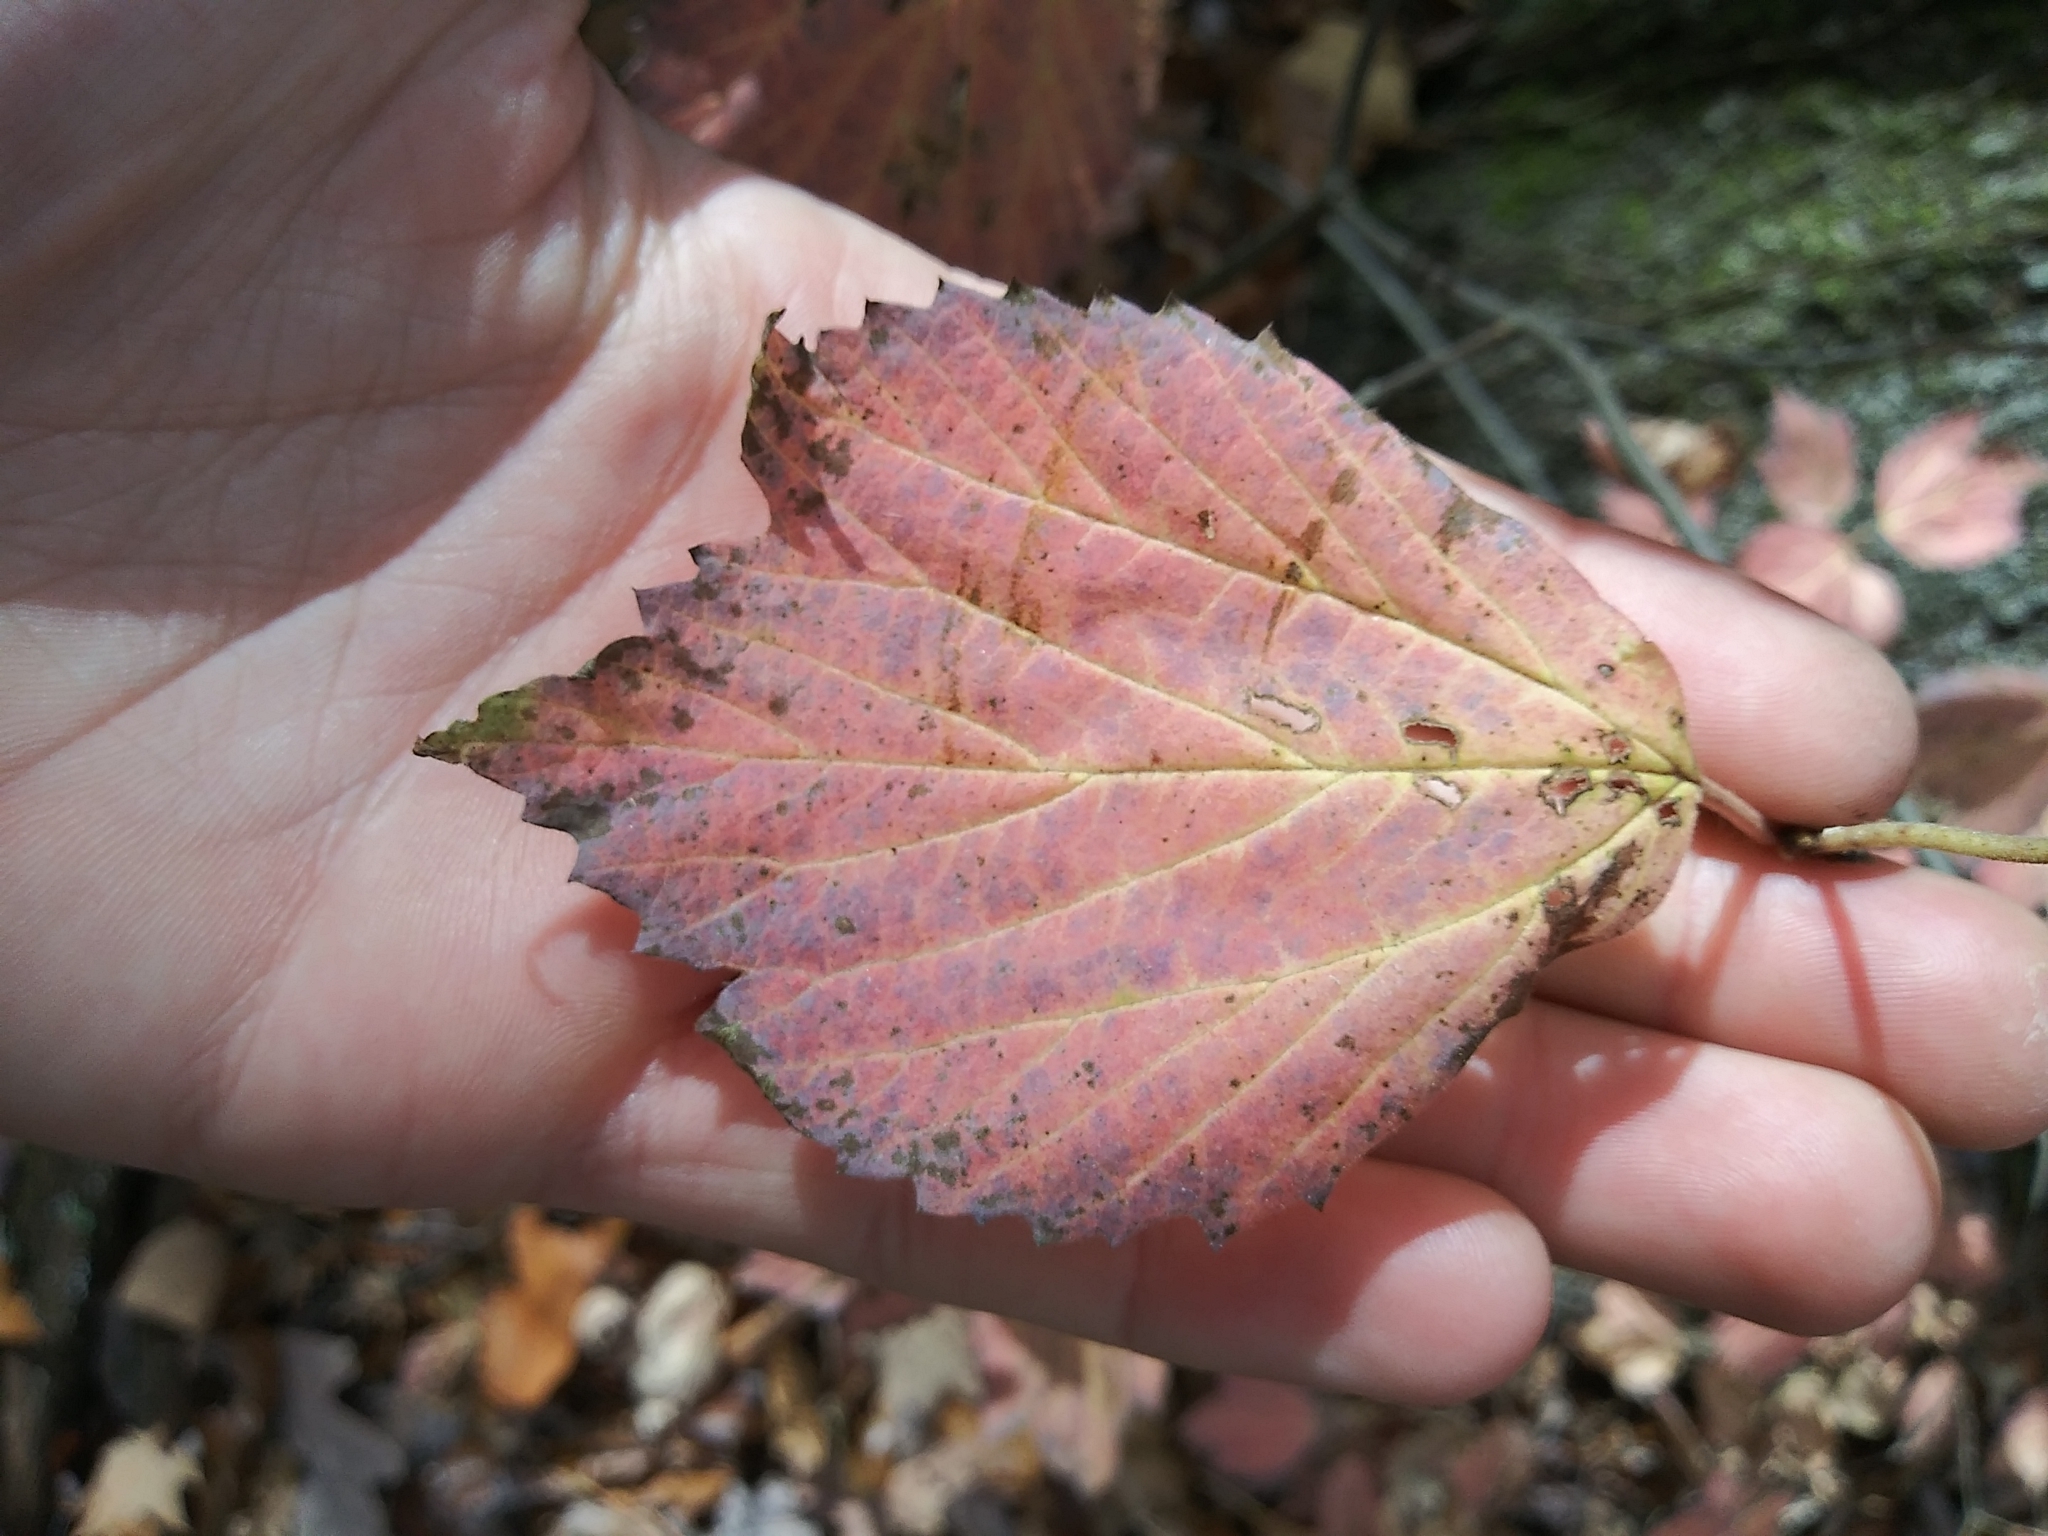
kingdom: Plantae
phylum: Tracheophyta
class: Magnoliopsida
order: Dipsacales
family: Viburnaceae
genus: Viburnum
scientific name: Viburnum acerifolium
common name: Dockmackie
